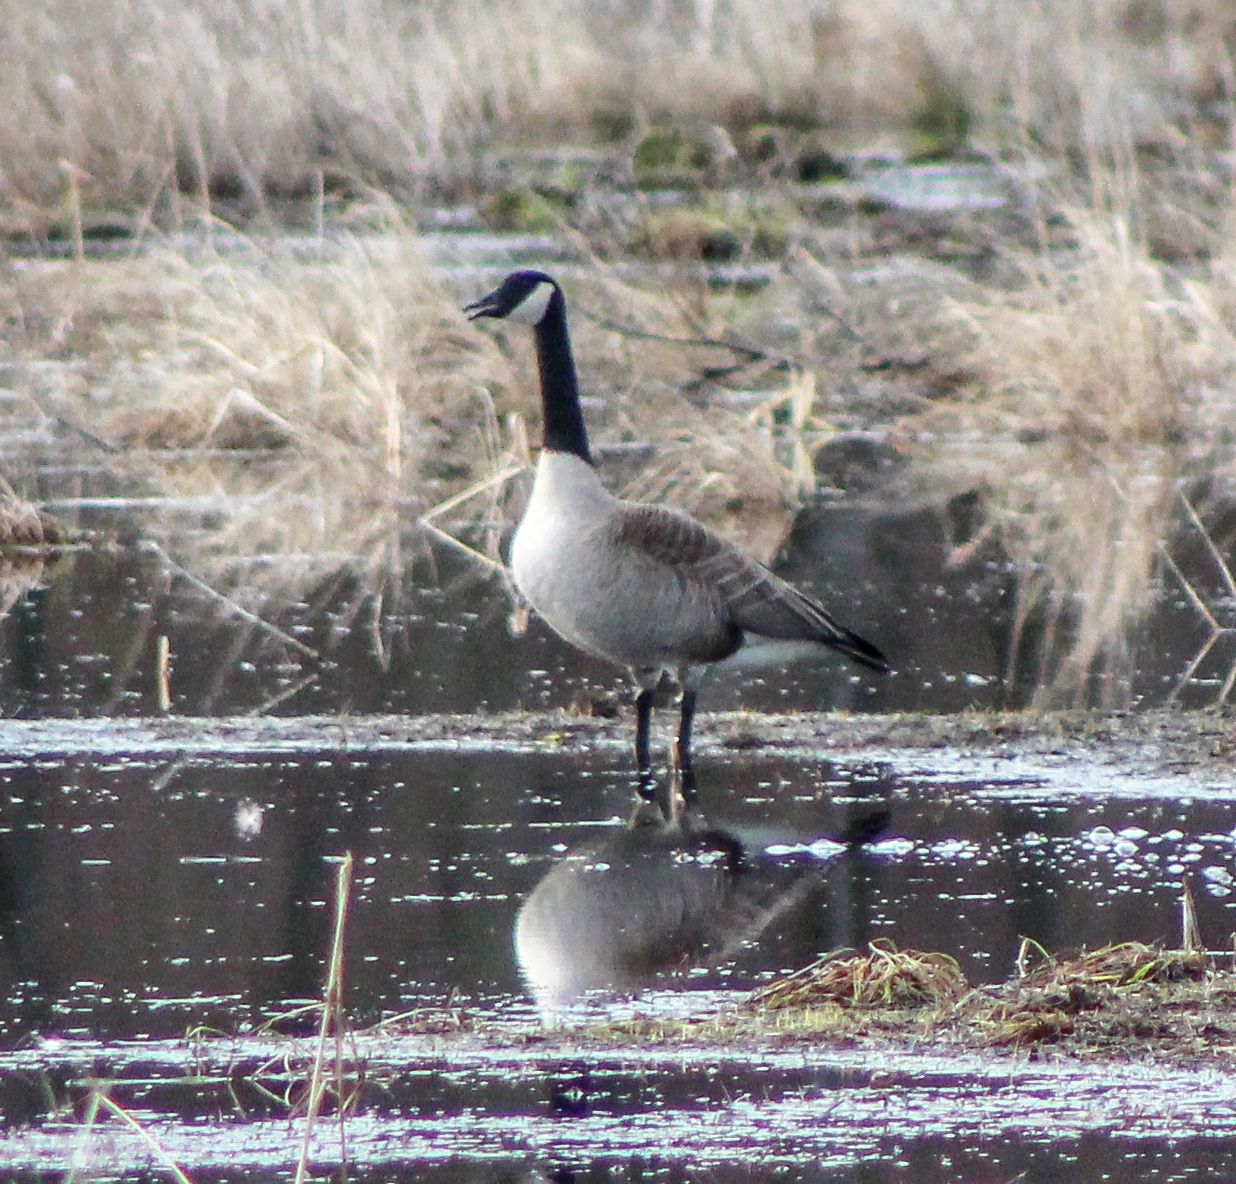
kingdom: Animalia
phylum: Chordata
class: Aves
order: Anseriformes
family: Anatidae
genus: Branta
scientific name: Branta canadensis
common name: Canada goose
